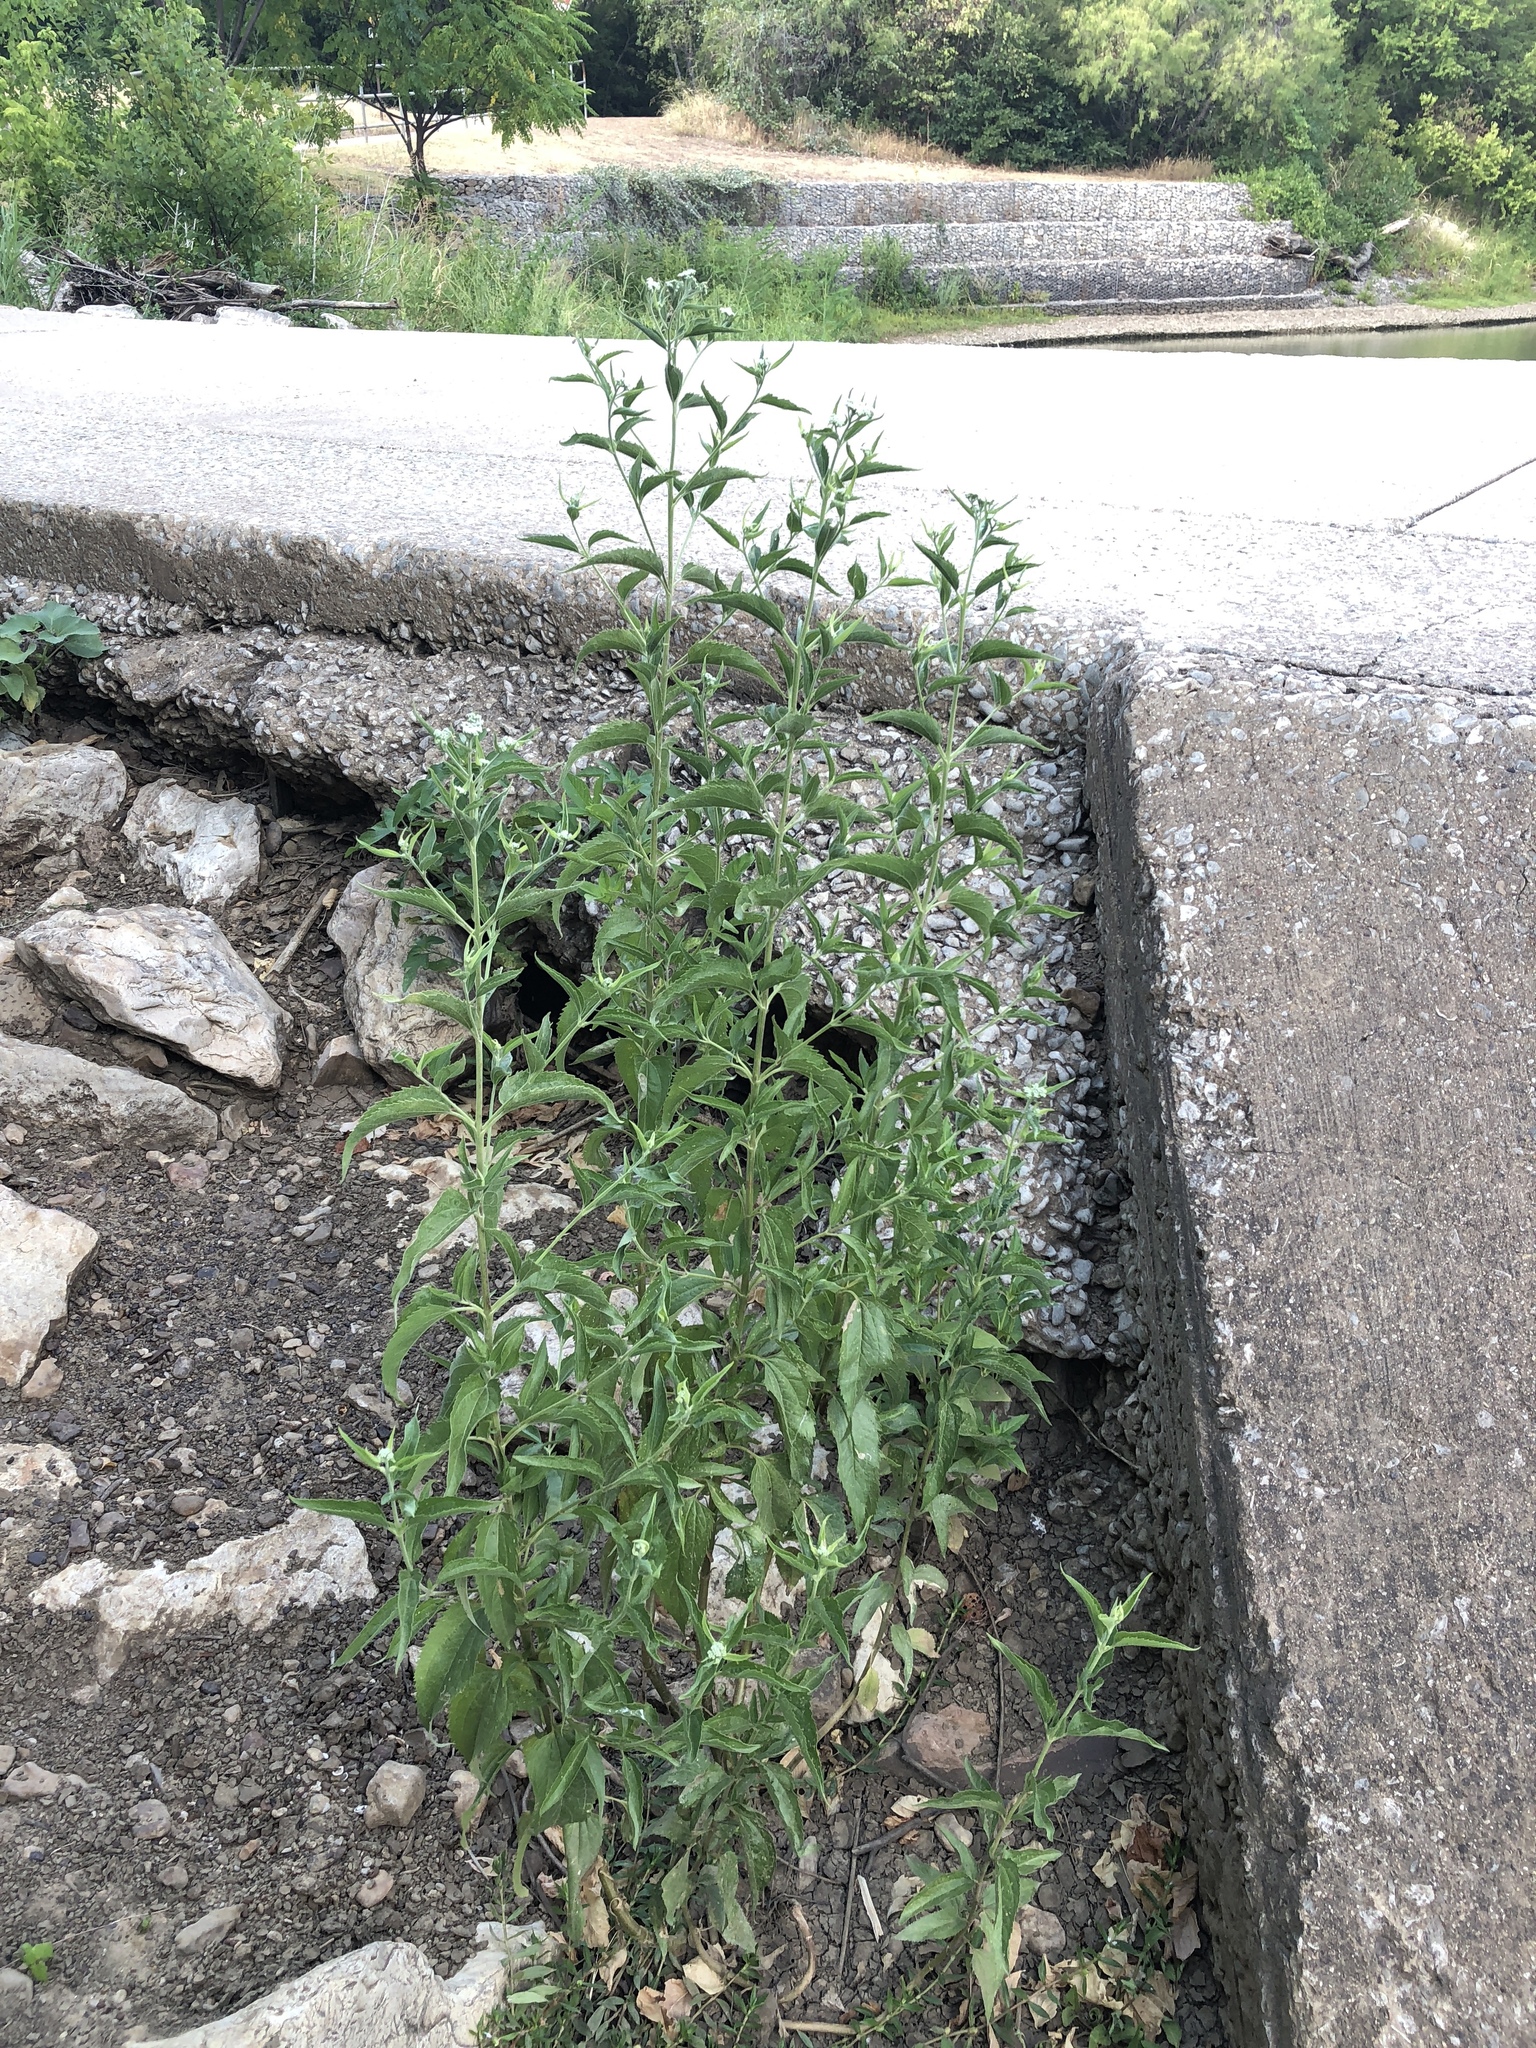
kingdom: Plantae
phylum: Tracheophyta
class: Magnoliopsida
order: Asterales
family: Asteraceae
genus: Eupatorium
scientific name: Eupatorium serotinum
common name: Late boneset
